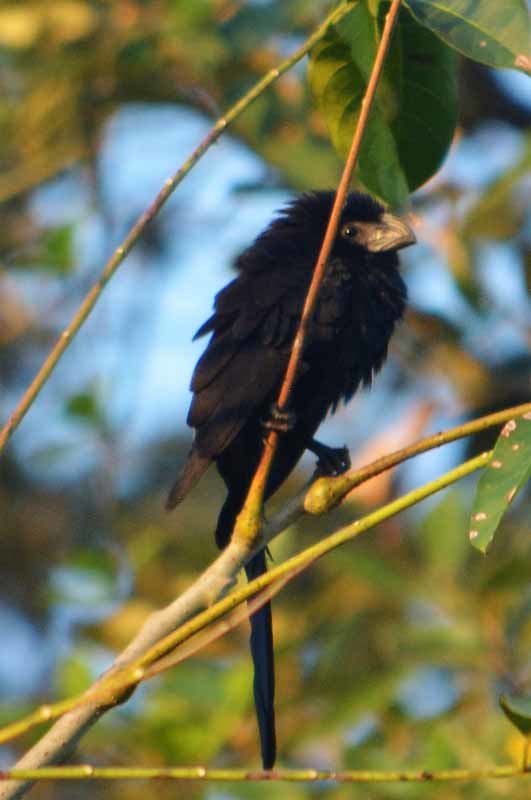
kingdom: Animalia
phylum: Chordata
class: Aves
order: Cuculiformes
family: Cuculidae
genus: Crotophaga
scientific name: Crotophaga sulcirostris
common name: Groove-billed ani
